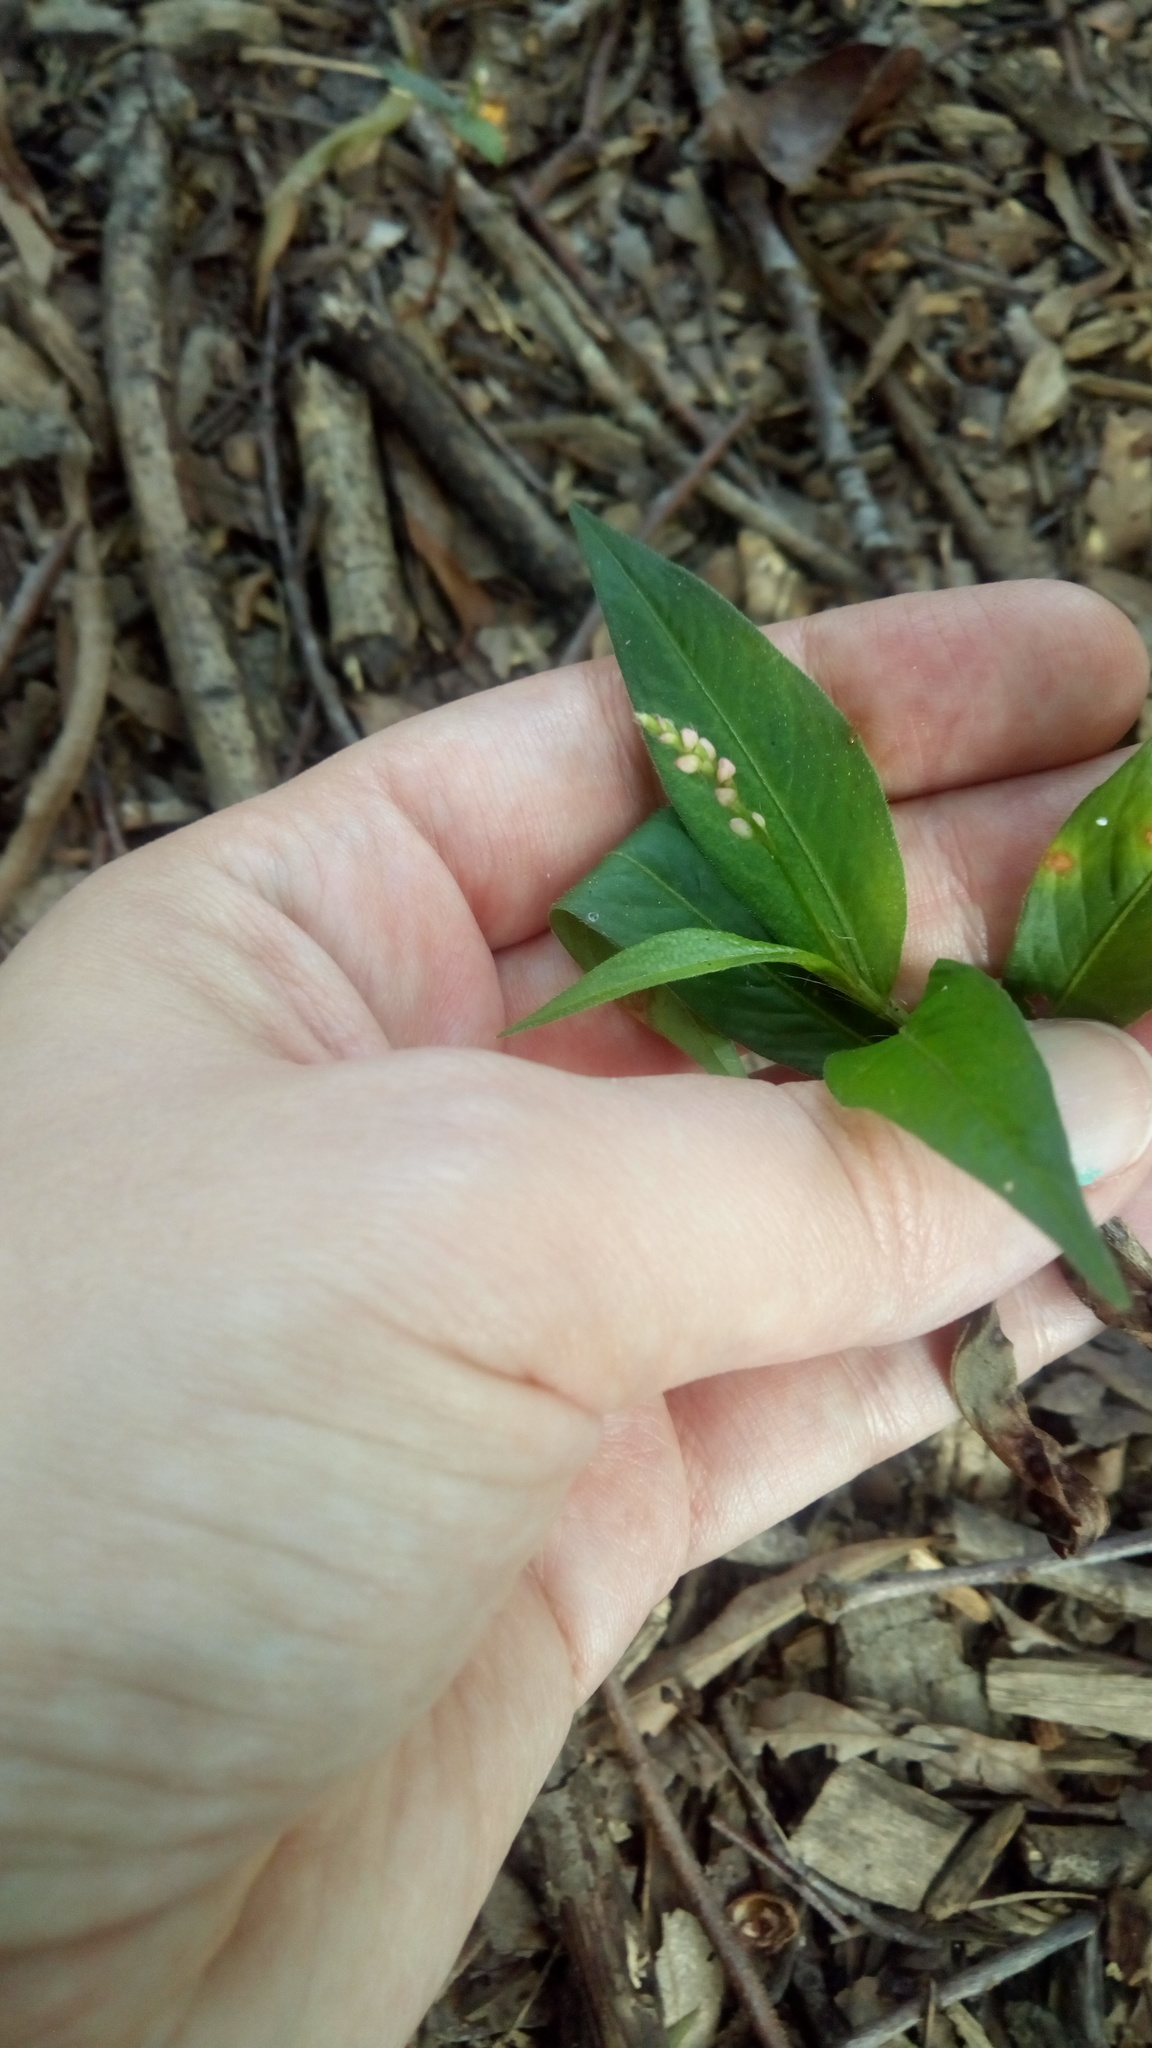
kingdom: Plantae
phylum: Tracheophyta
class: Magnoliopsida
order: Caryophyllales
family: Polygonaceae
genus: Persicaria
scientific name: Persicaria longiseta
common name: Bristly lady's-thumb
